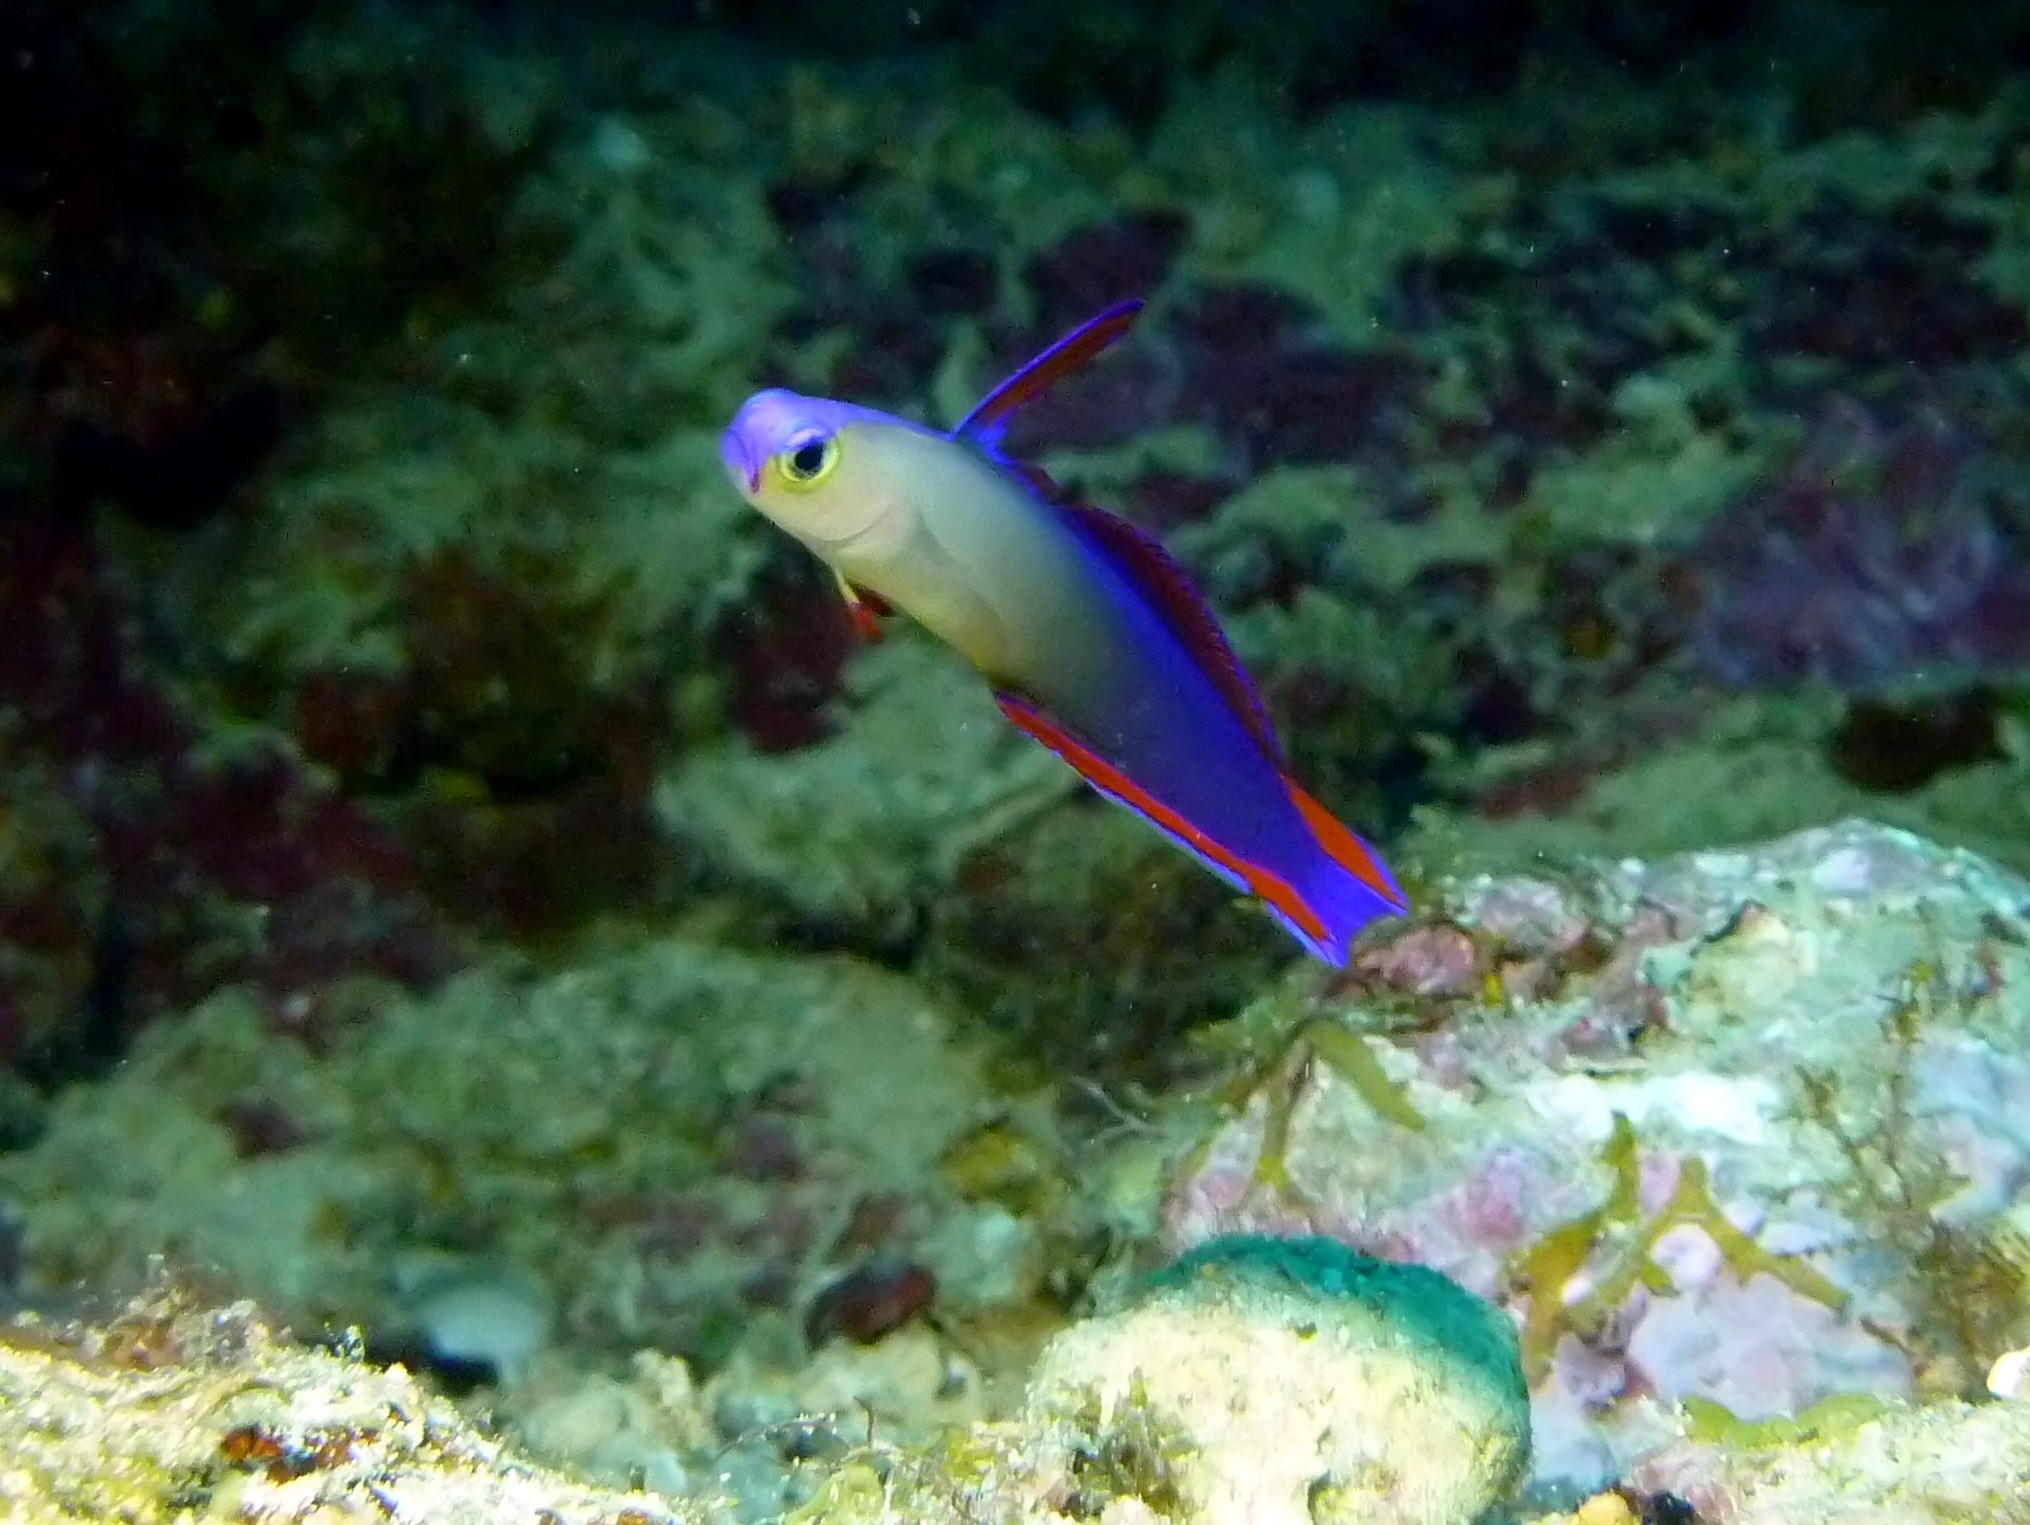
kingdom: Animalia
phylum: Chordata
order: Perciformes
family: Microdesmidae
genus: Nemateleotris
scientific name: Nemateleotris decora
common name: Elegant firefish
